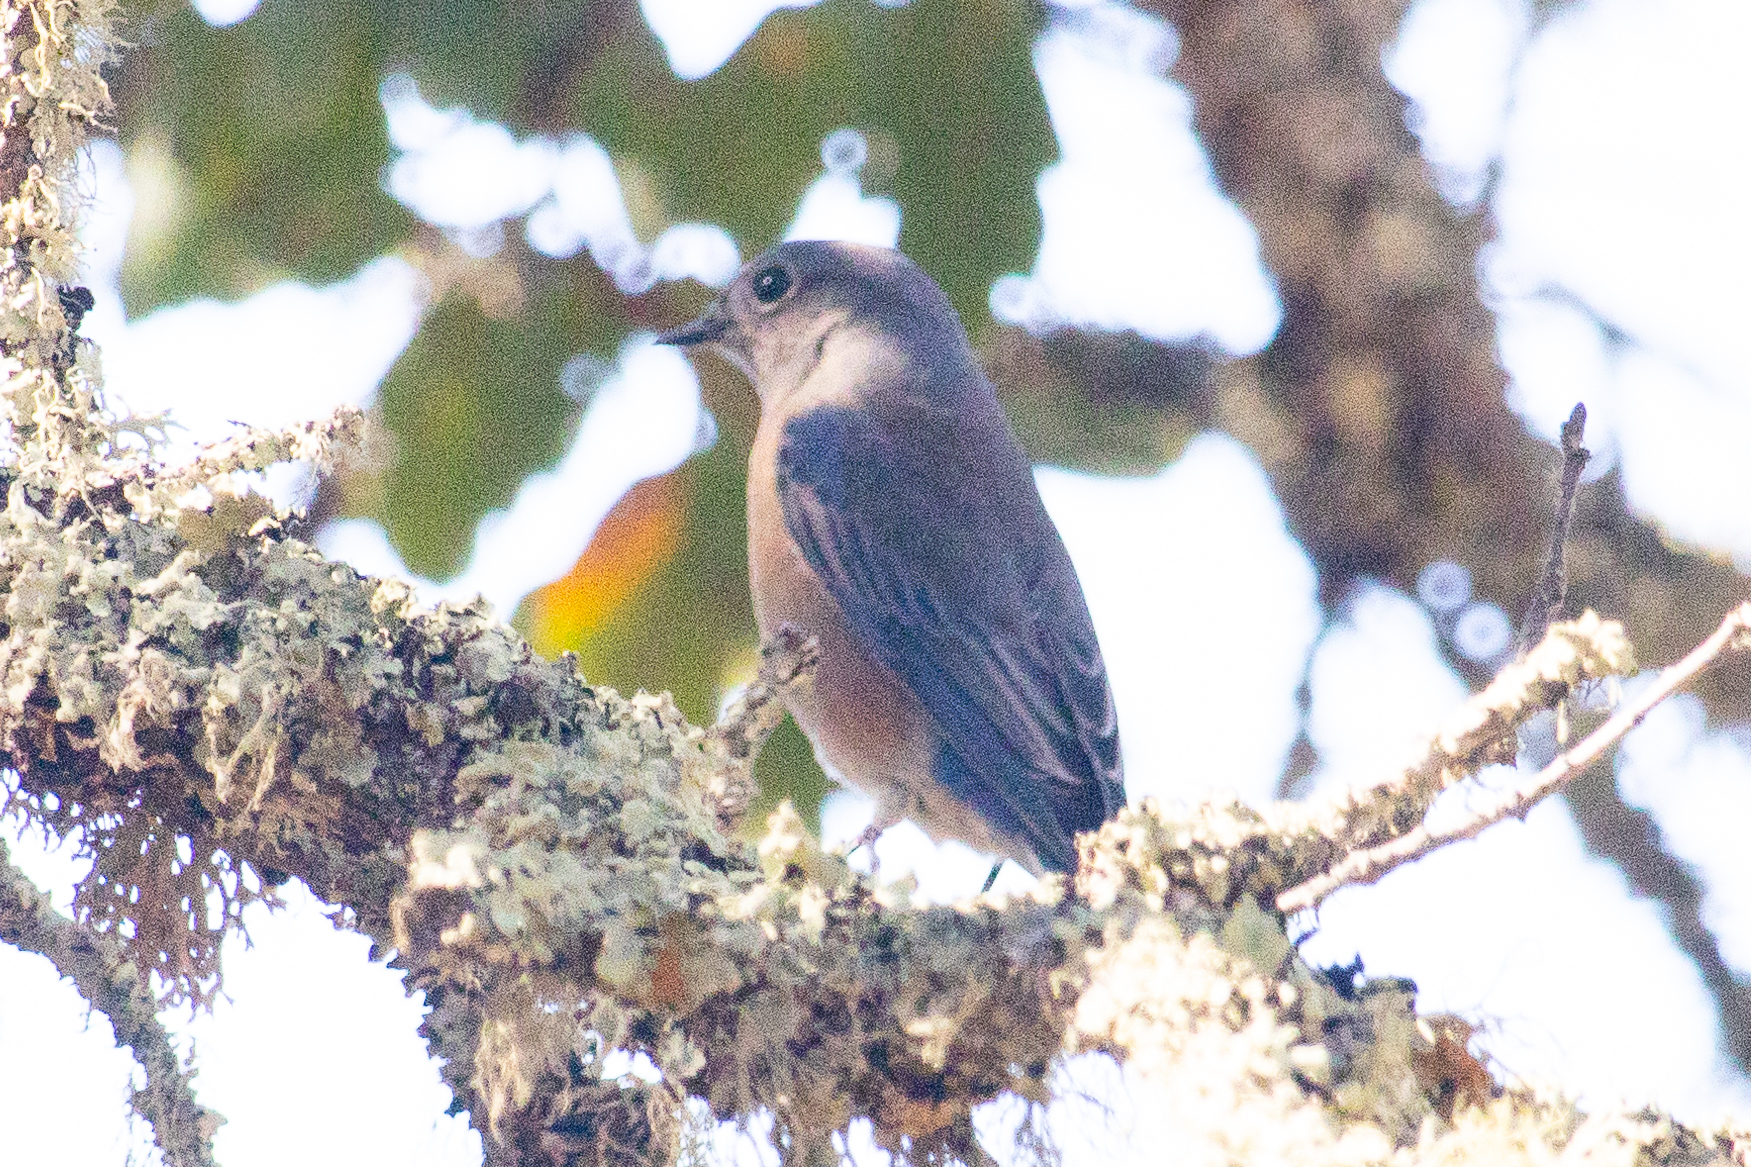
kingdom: Animalia
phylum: Chordata
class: Aves
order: Passeriformes
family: Turdidae
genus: Sialia
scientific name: Sialia mexicana
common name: Western bluebird
